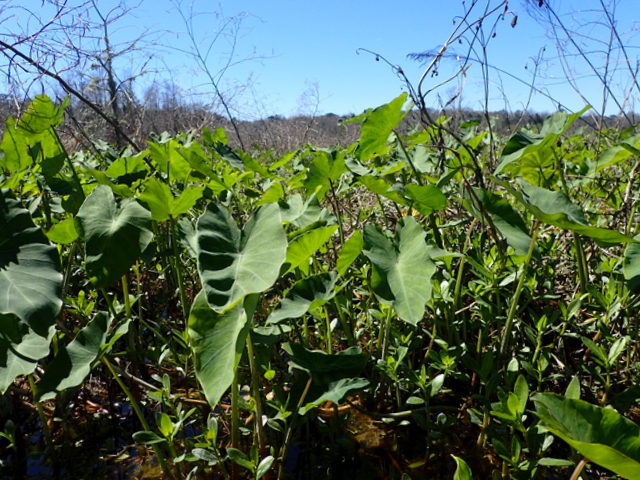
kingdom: Plantae
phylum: Tracheophyta
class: Liliopsida
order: Alismatales
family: Araceae
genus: Colocasia
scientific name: Colocasia esculenta
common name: Taro
